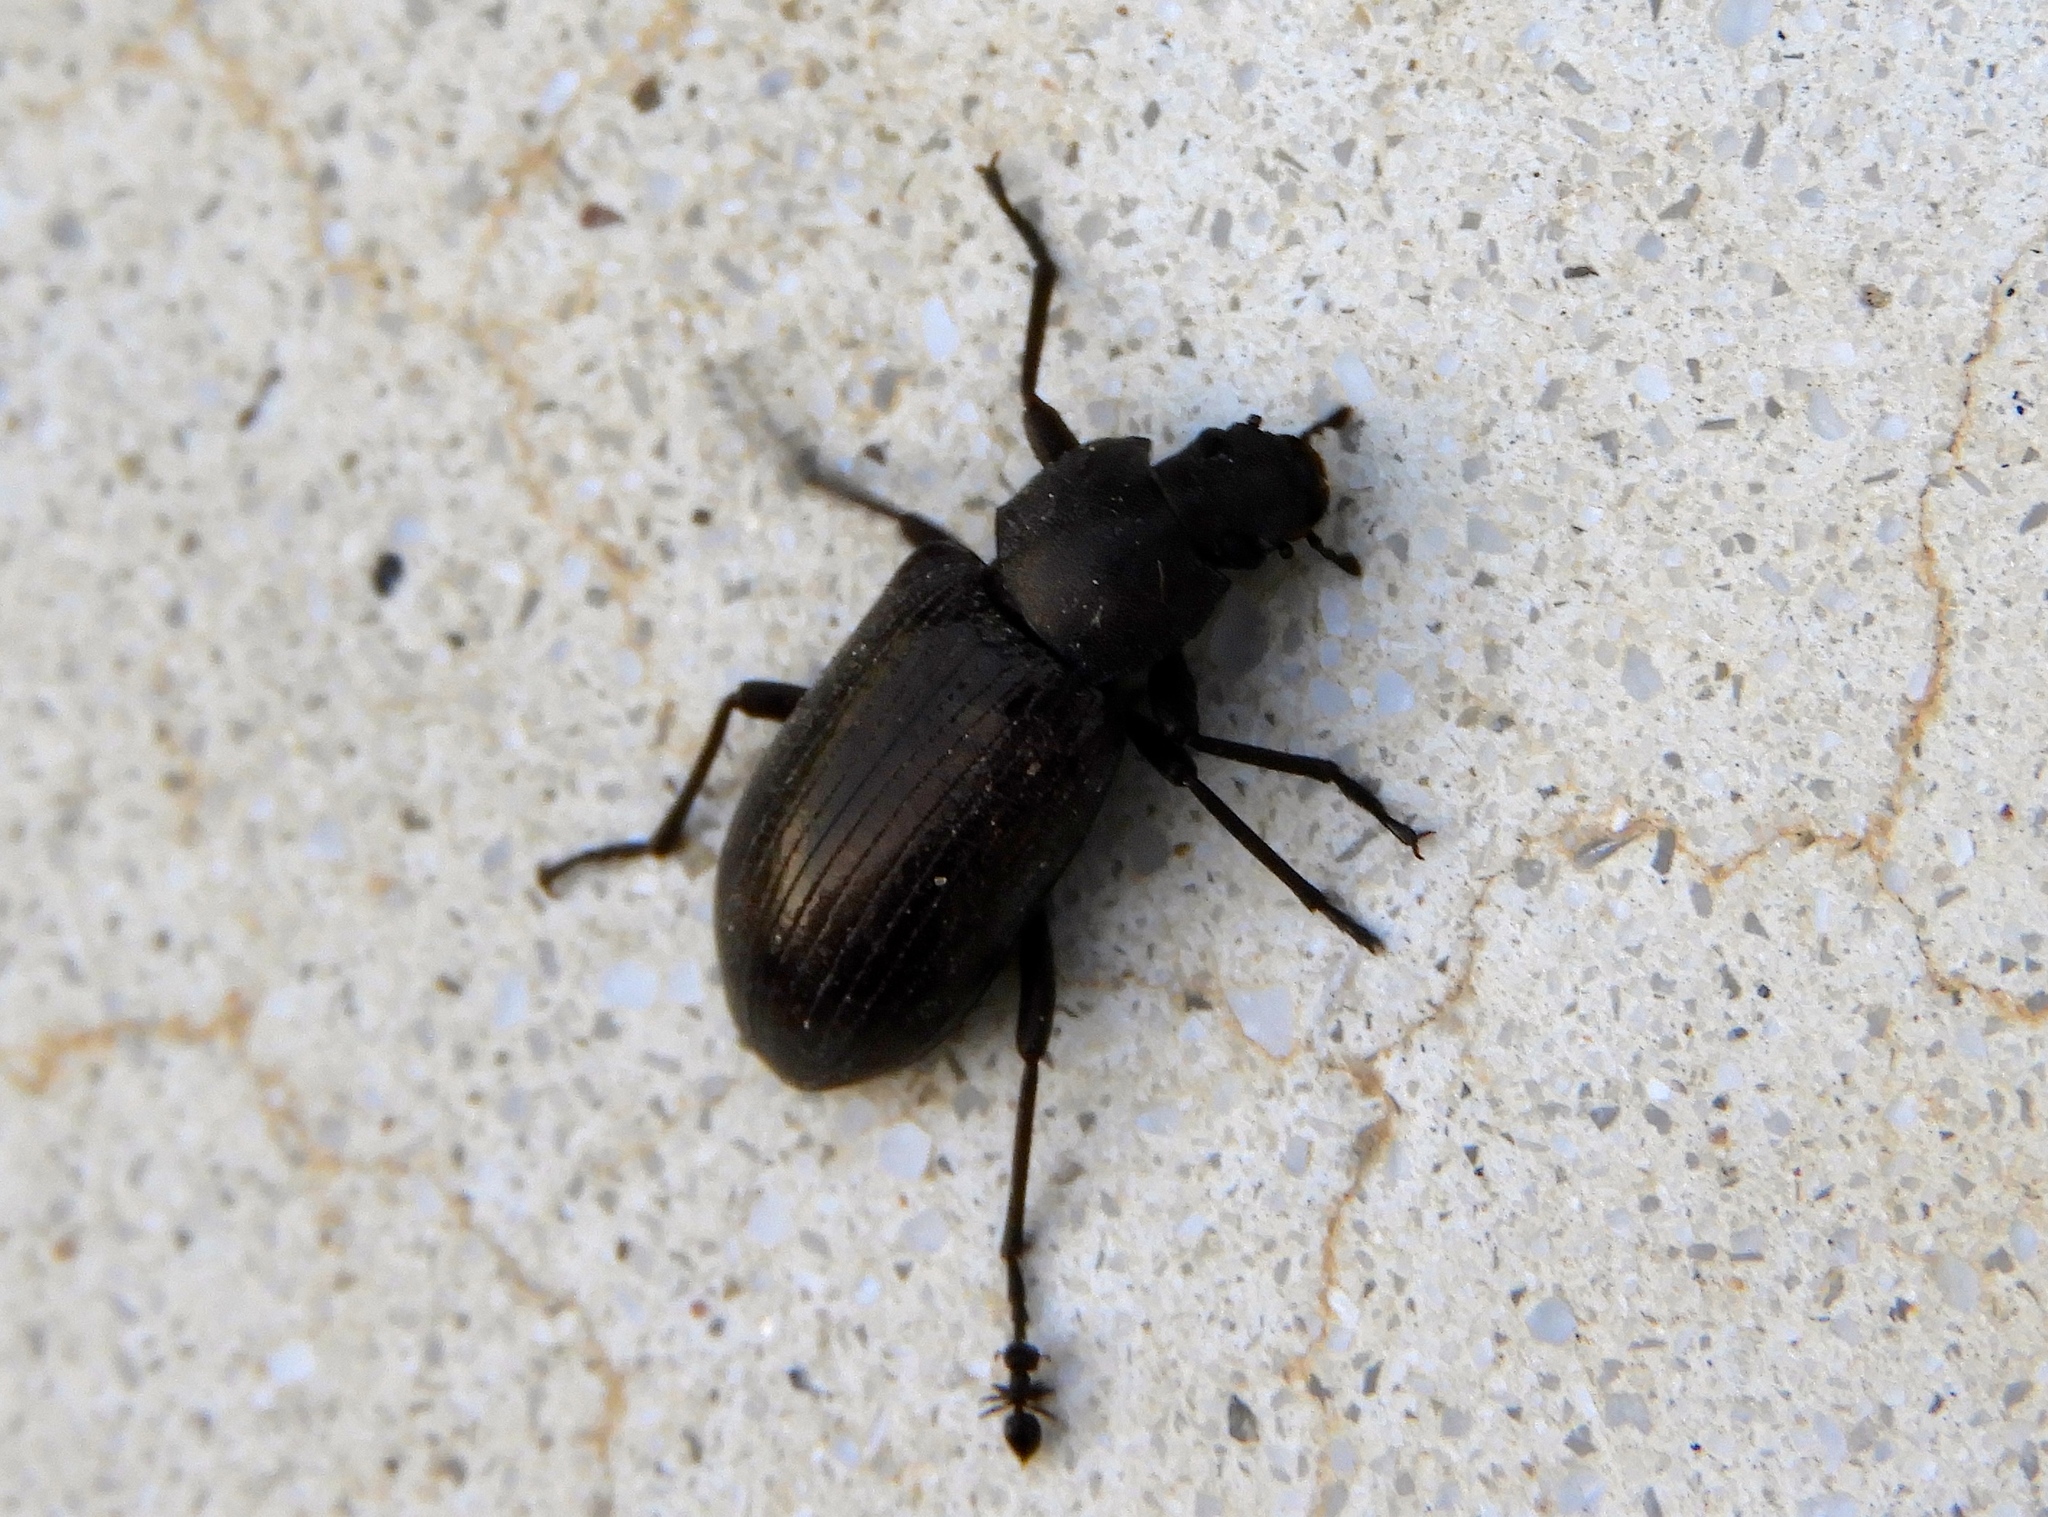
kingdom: Animalia
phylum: Arthropoda
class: Insecta
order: Coleoptera
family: Helopii
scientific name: Helopii
